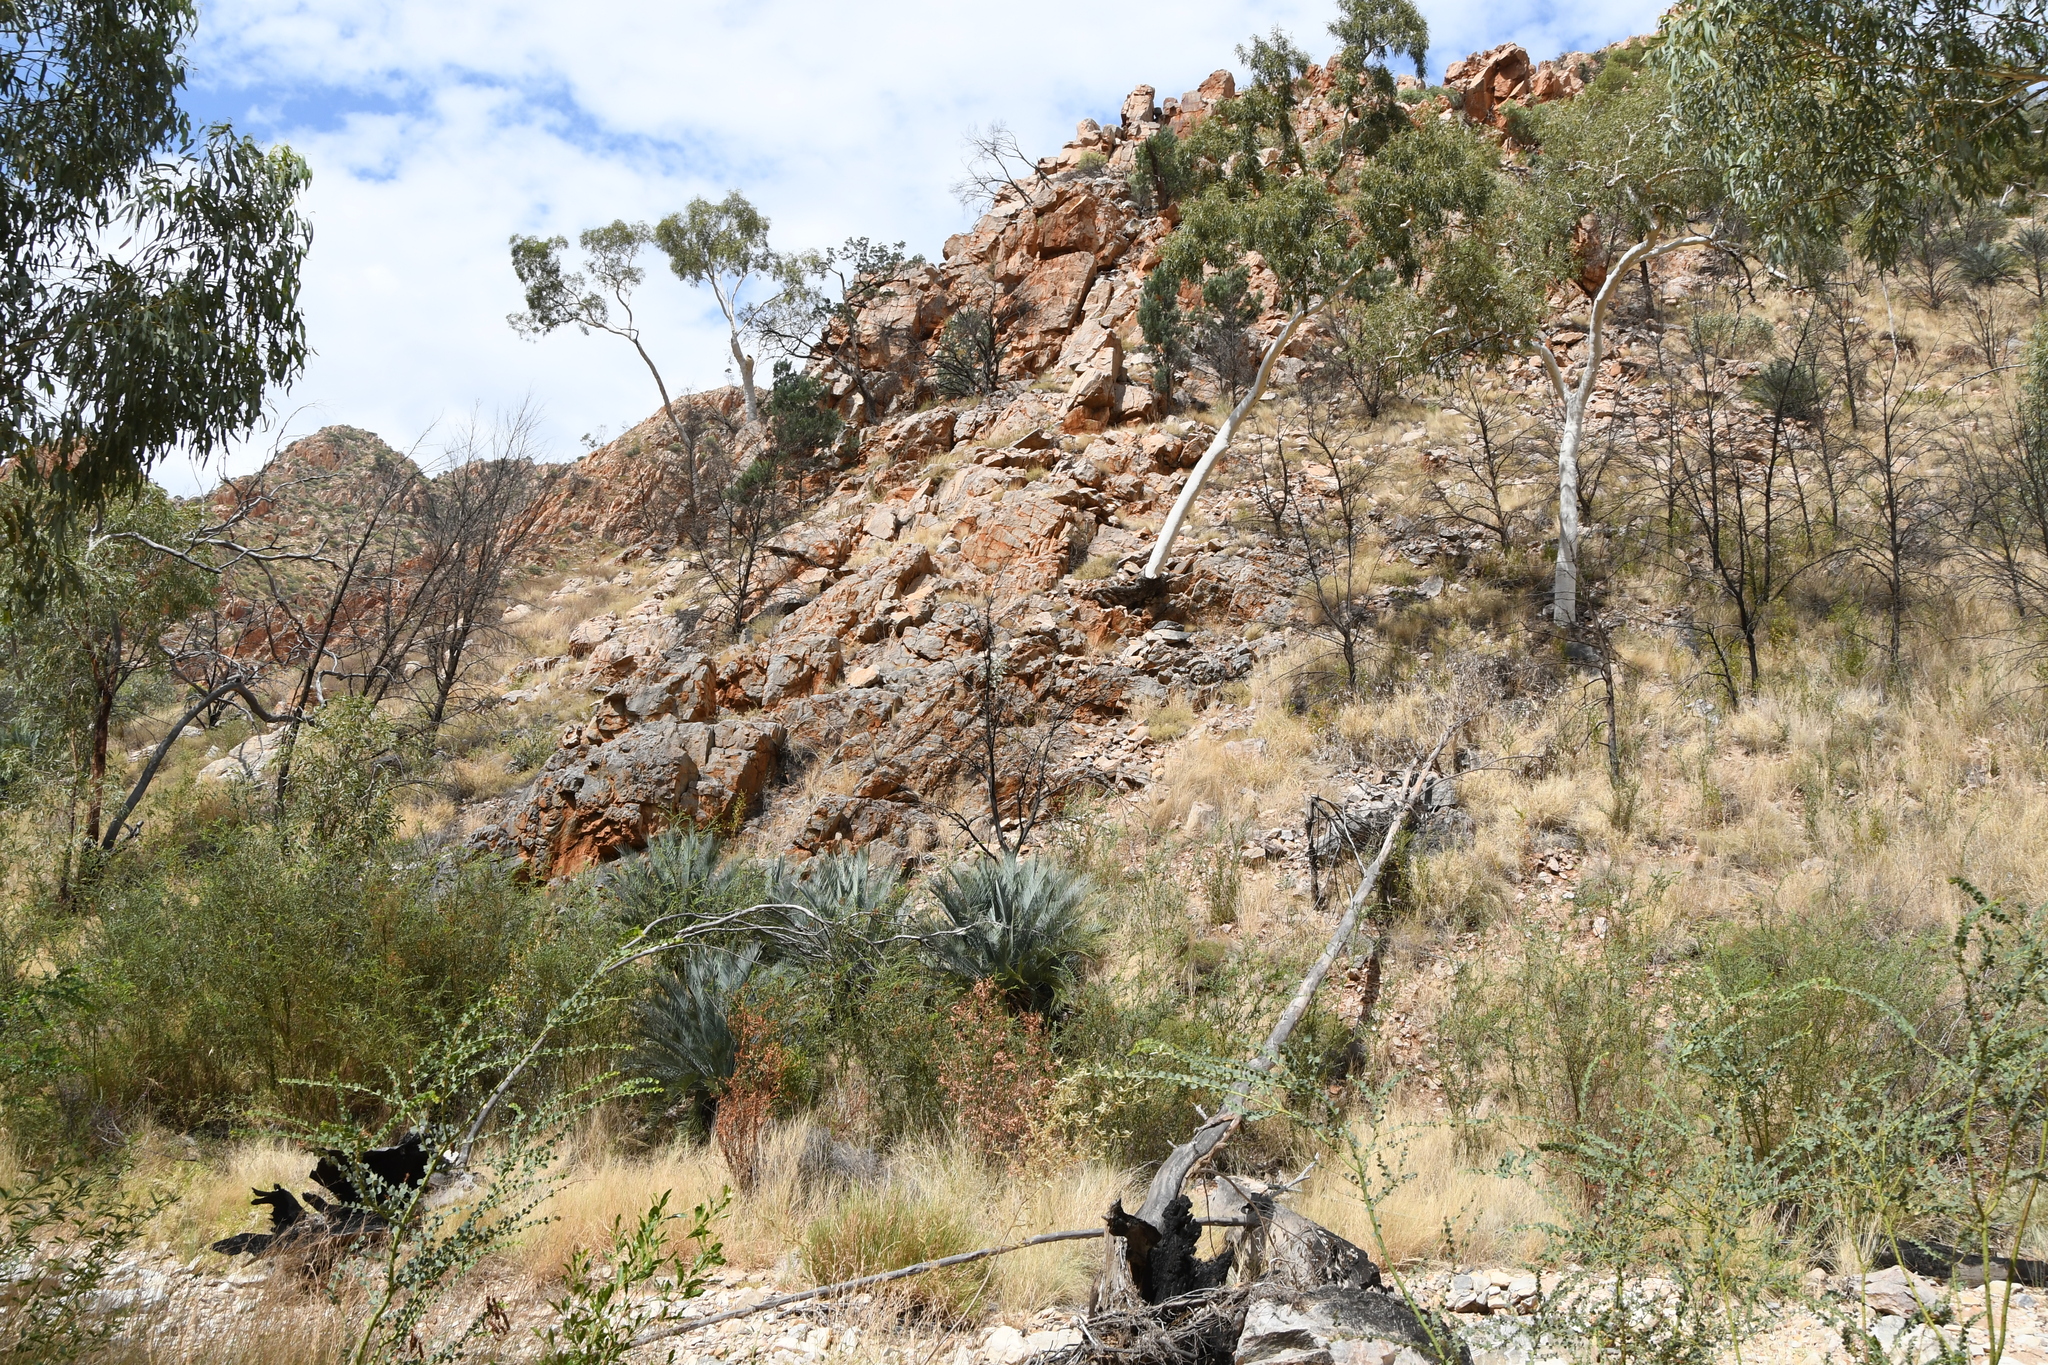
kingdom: Plantae
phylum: Tracheophyta
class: Cycadopsida
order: Cycadales
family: Zamiaceae
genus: Macrozamia
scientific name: Macrozamia macdonnellii
